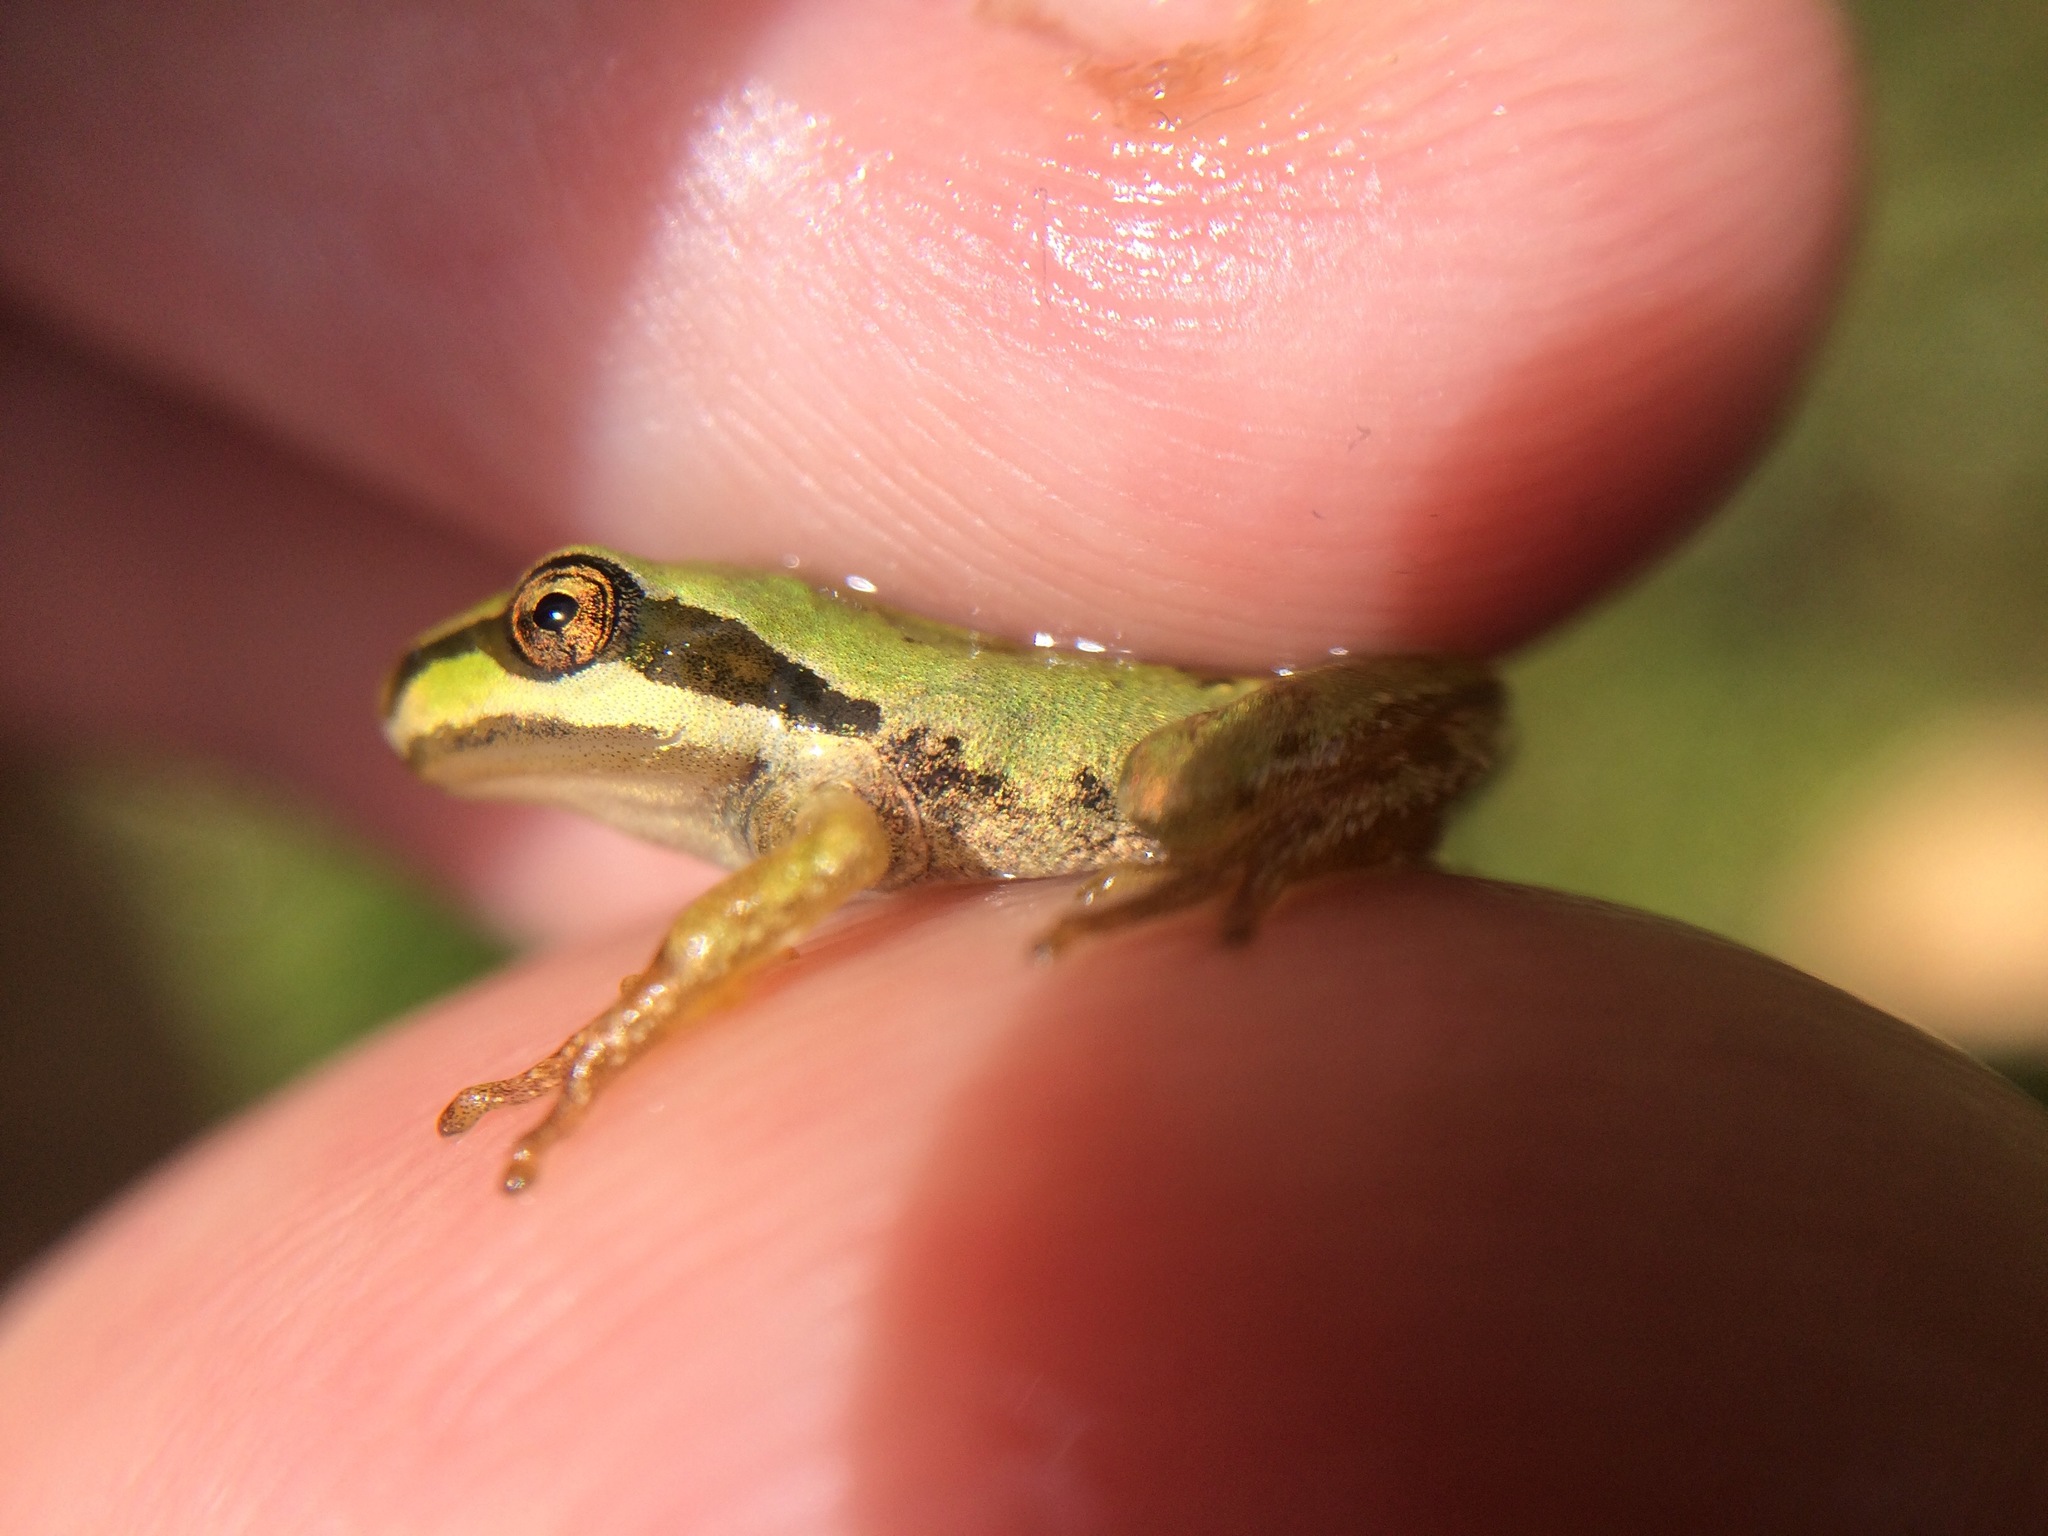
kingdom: Animalia
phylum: Chordata
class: Amphibia
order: Anura
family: Hylidae
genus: Pseudacris
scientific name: Pseudacris regilla
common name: Pacific chorus frog
